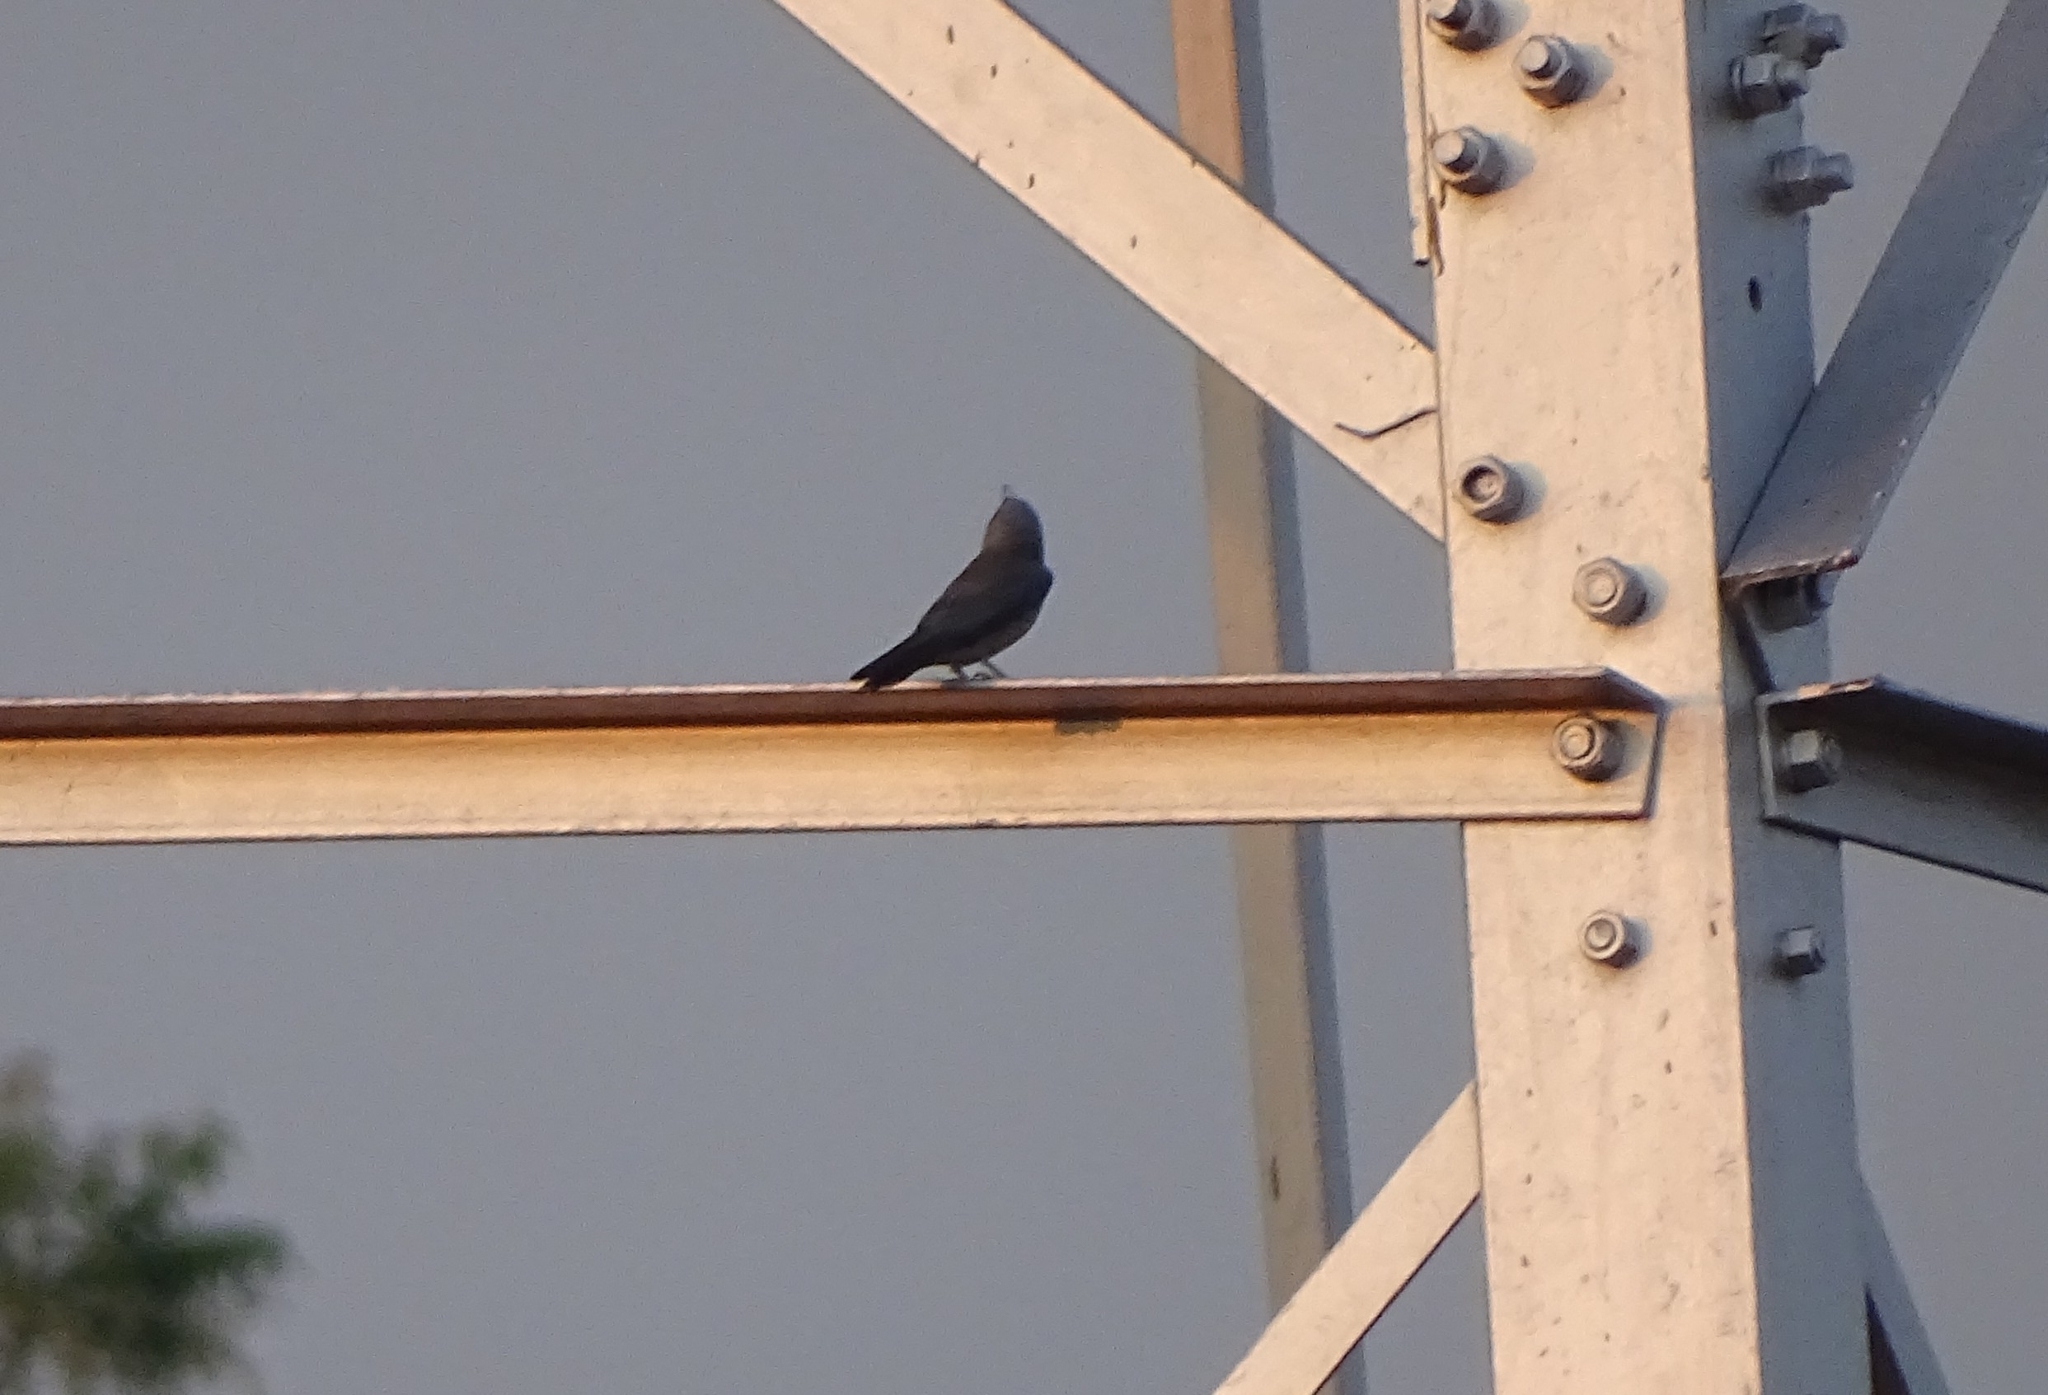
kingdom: Animalia
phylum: Chordata
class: Aves
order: Passeriformes
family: Artamidae
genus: Artamus
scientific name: Artamus fuscus
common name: Ashy woodswallow
